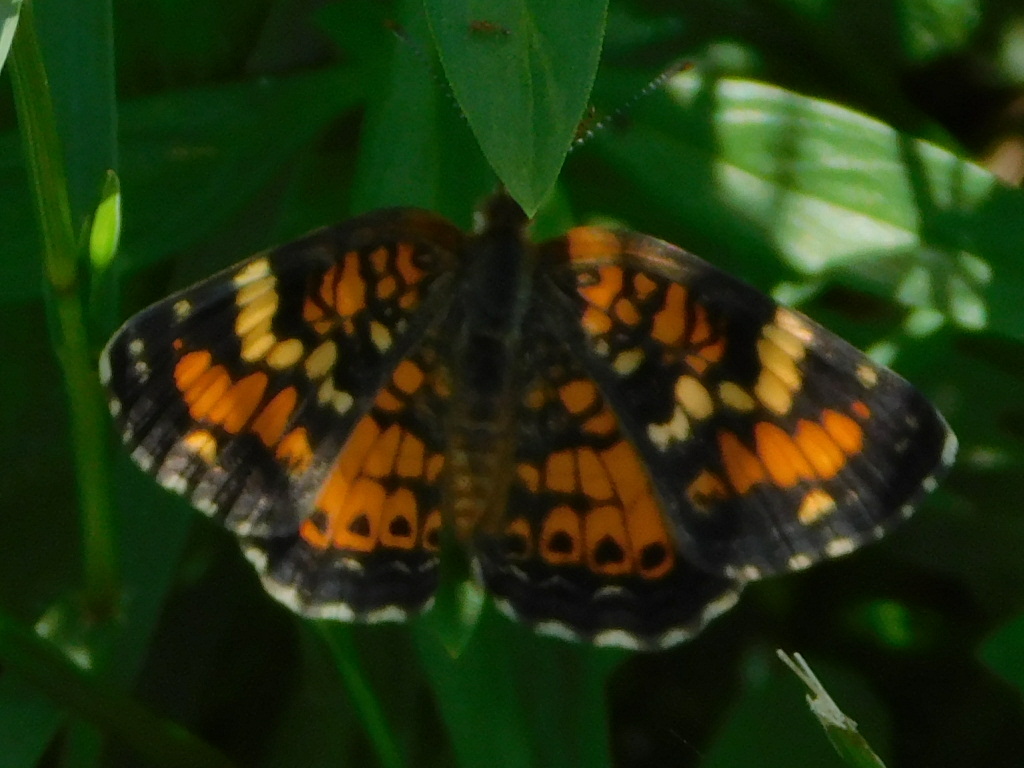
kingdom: Animalia
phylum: Arthropoda
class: Insecta
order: Lepidoptera
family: Nymphalidae
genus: Phyciodes
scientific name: Phyciodes phaon
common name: Phaon crescent
